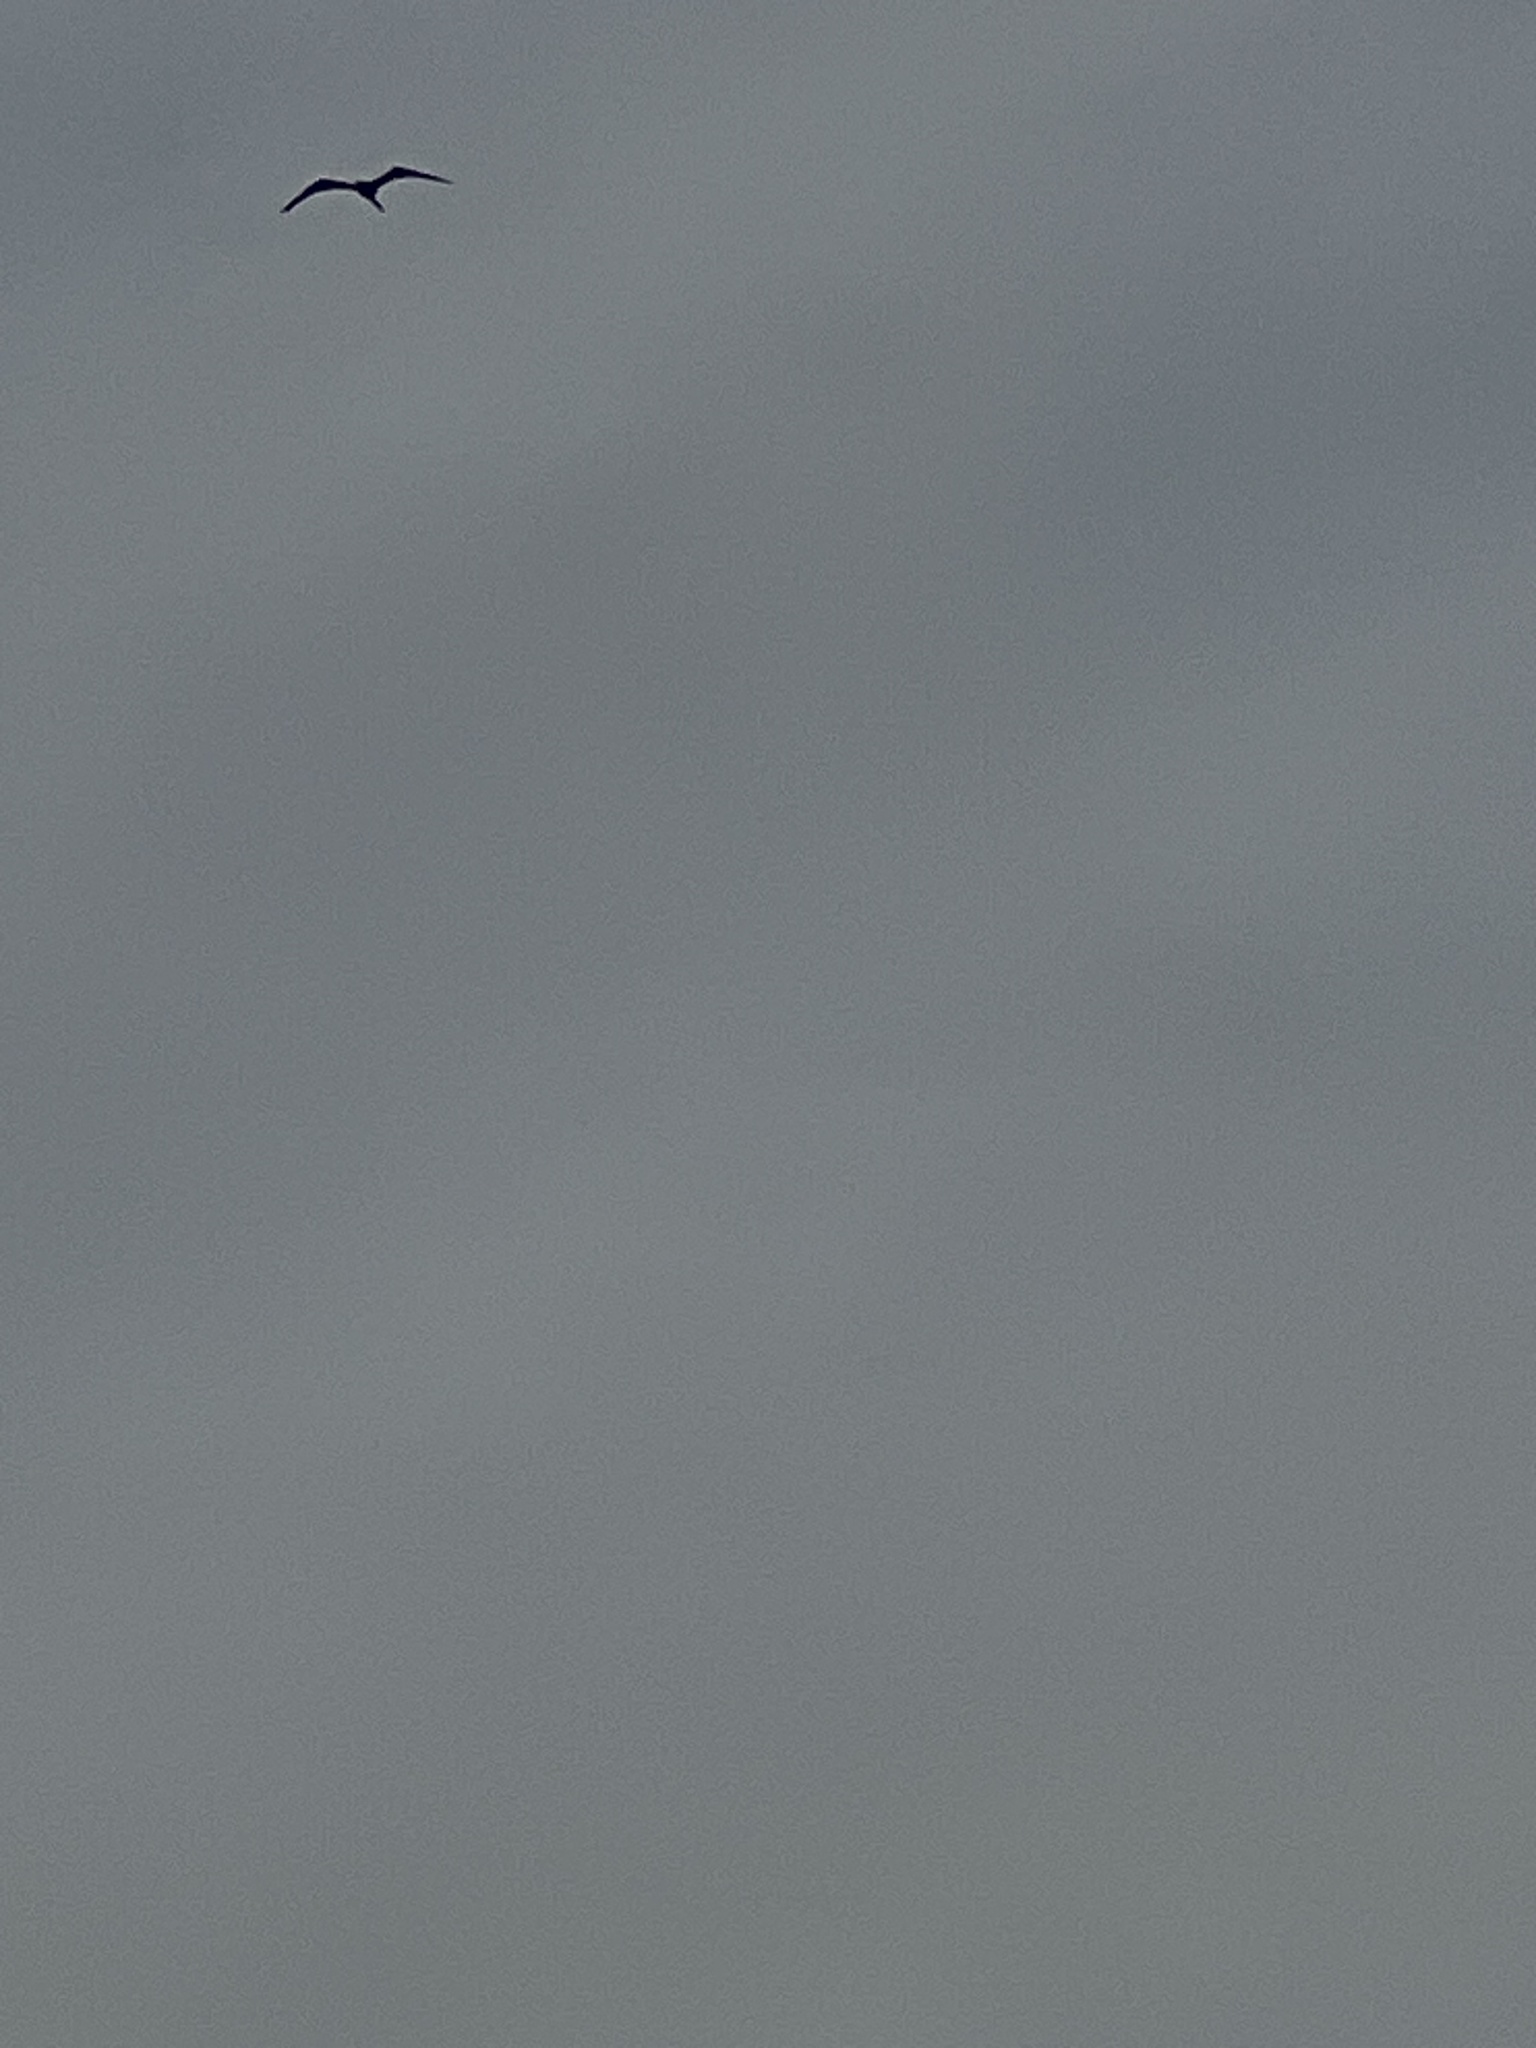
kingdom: Animalia
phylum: Chordata
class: Aves
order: Suliformes
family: Fregatidae
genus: Fregata
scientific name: Fregata magnificens
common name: Magnificent frigatebird
